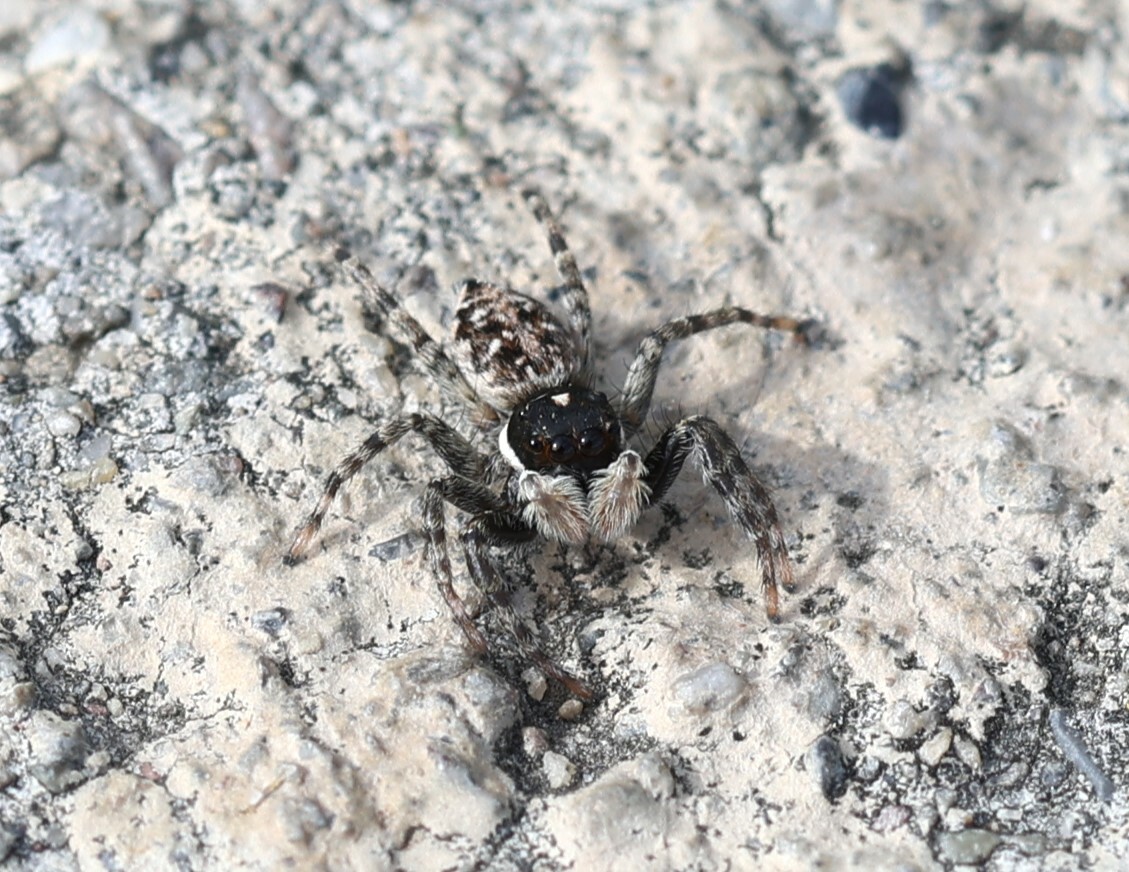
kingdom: Animalia
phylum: Arthropoda
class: Arachnida
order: Araneae
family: Salticidae
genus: Menemerus
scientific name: Menemerus semilimbatus
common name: Jumping spider
